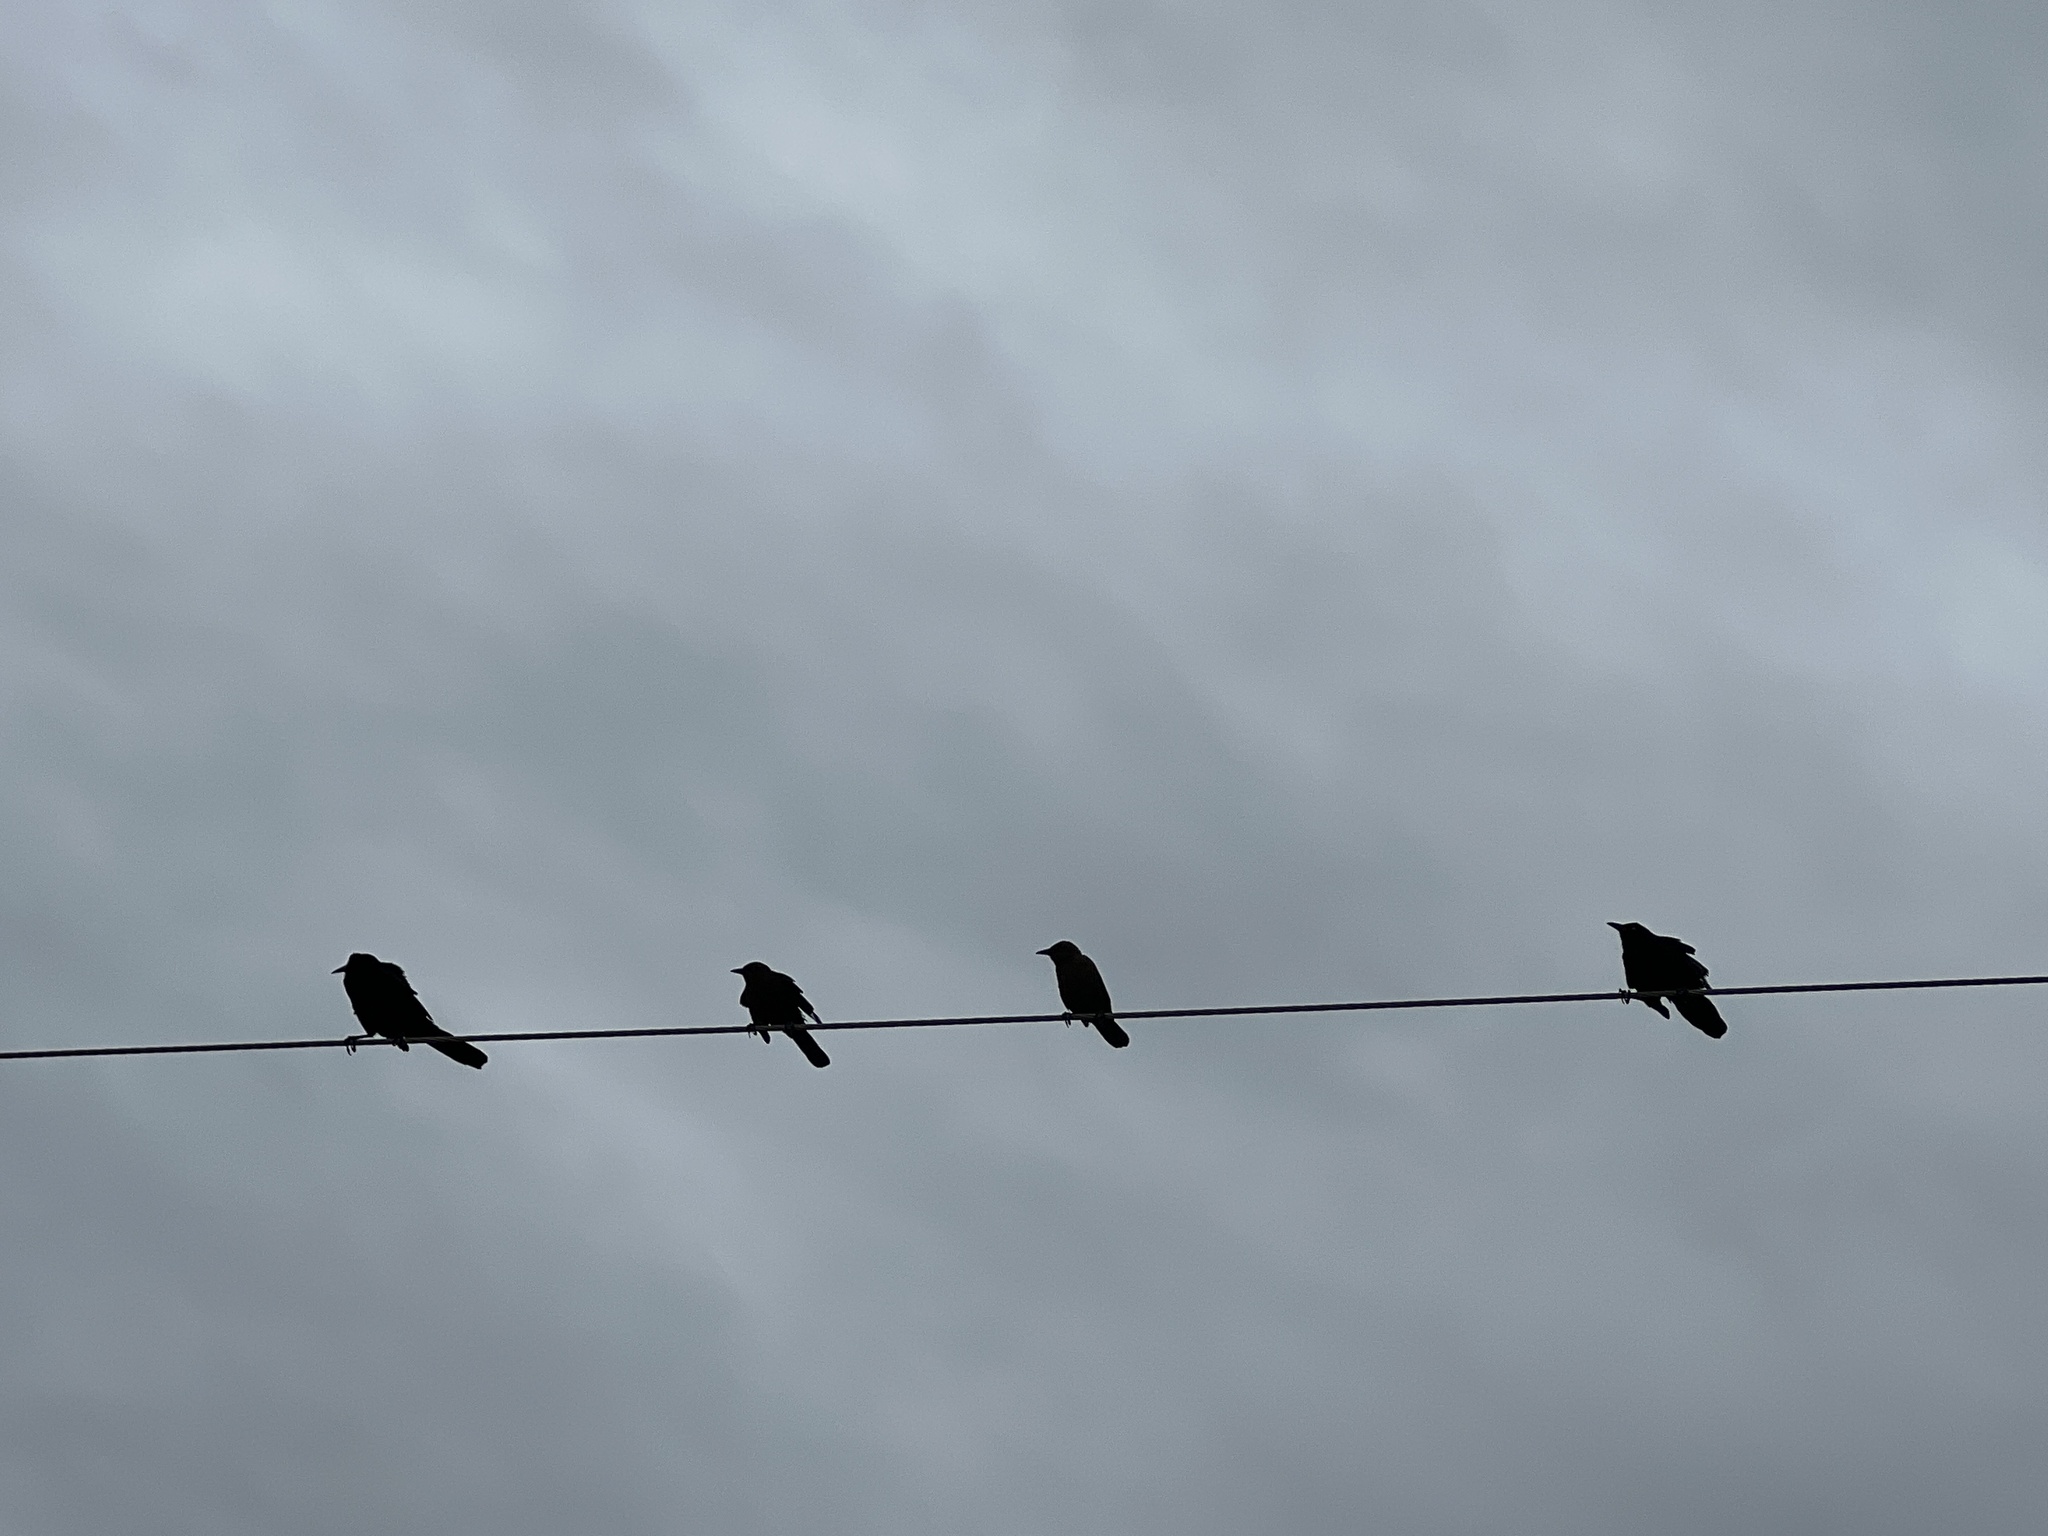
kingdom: Animalia
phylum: Chordata
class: Aves
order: Passeriformes
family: Icteridae
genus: Quiscalus
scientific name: Quiscalus mexicanus
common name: Great-tailed grackle
